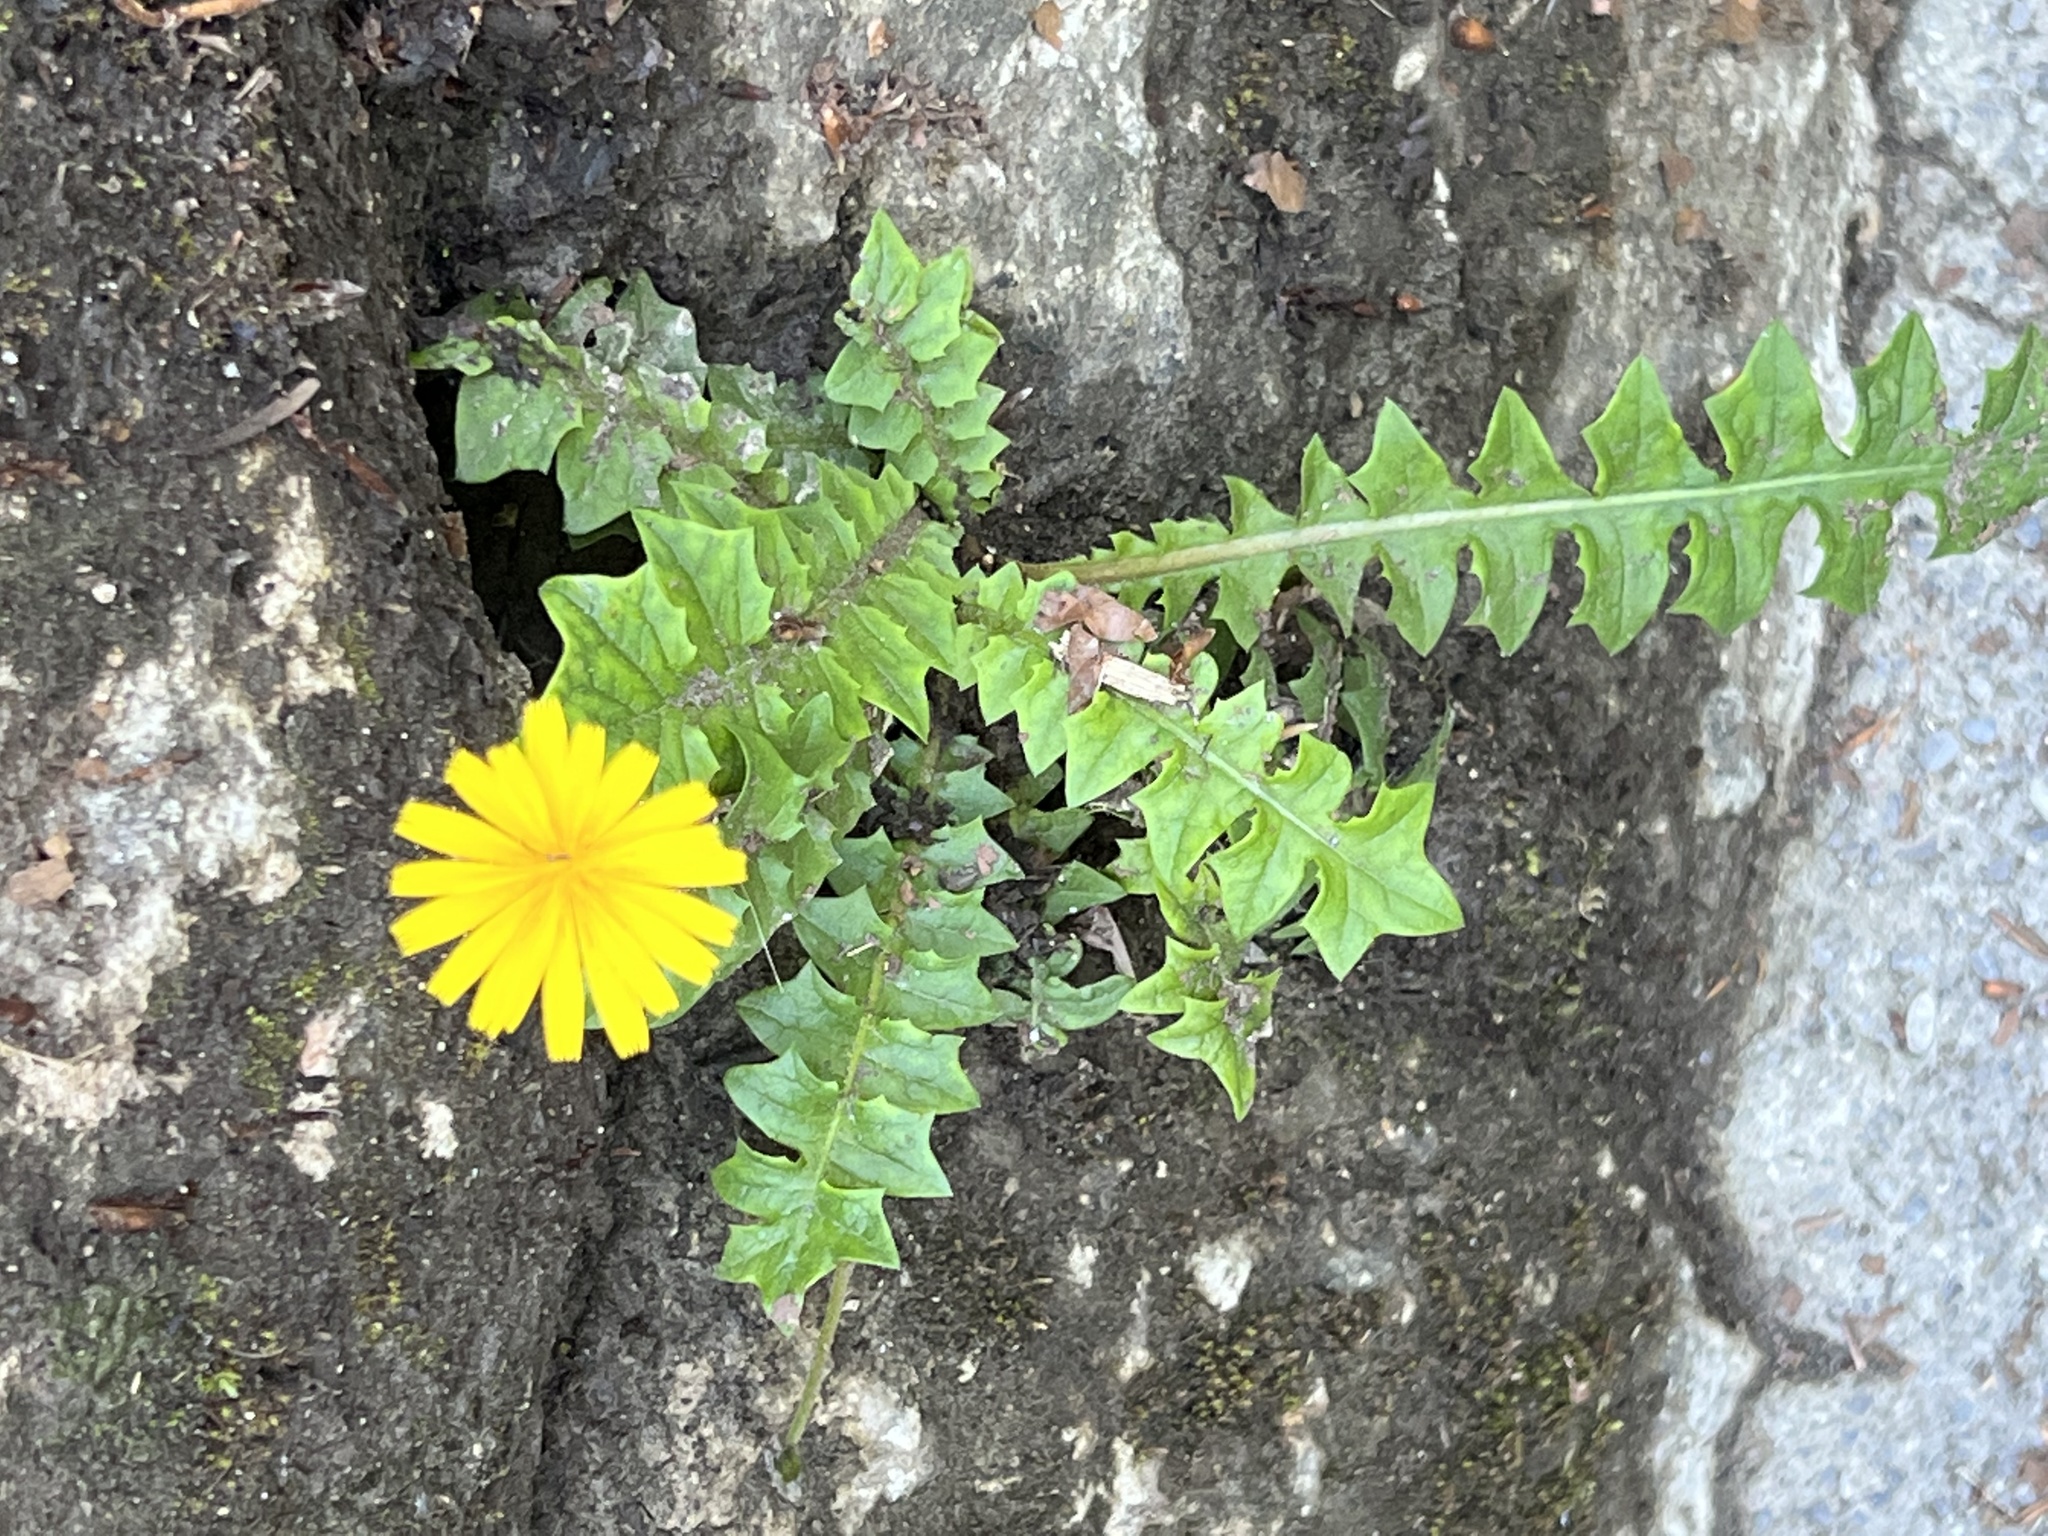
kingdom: Plantae
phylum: Tracheophyta
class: Magnoliopsida
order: Asterales
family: Asteraceae
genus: Aposeris
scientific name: Aposeris foetida
